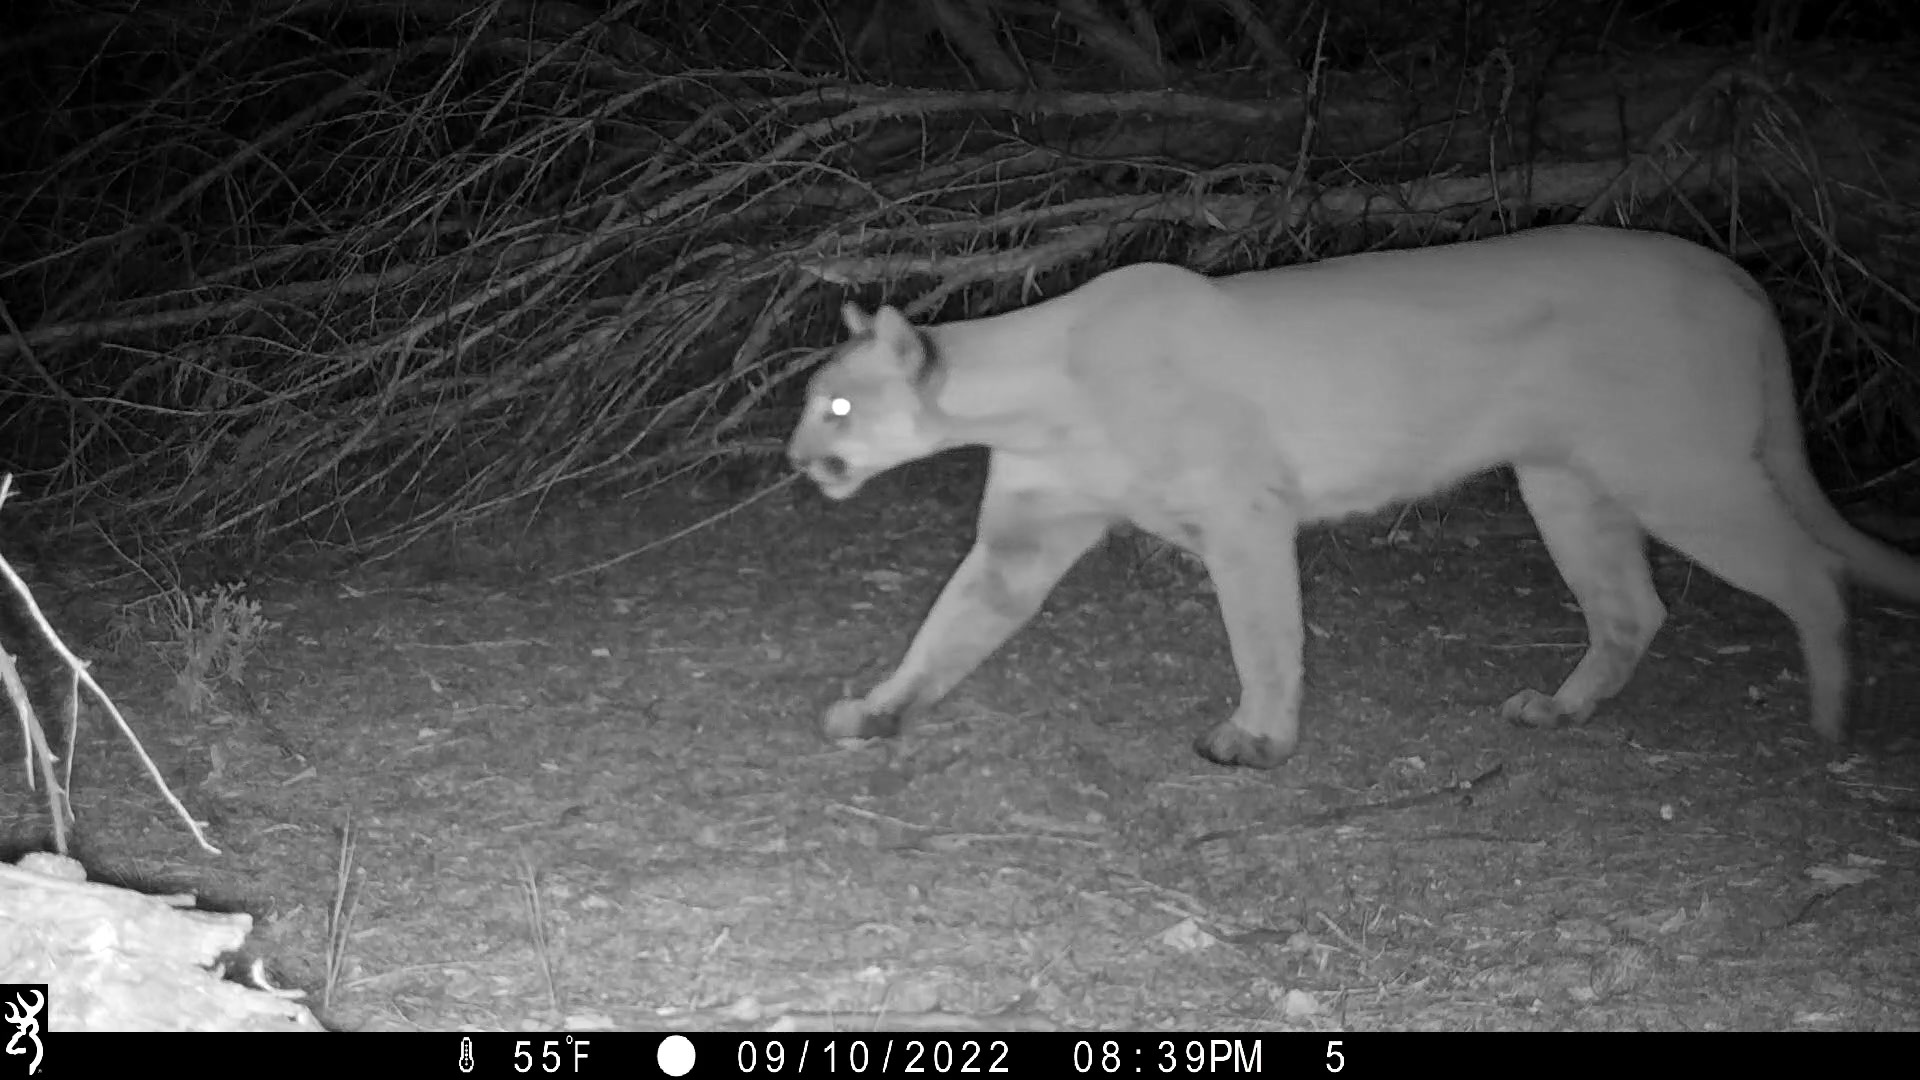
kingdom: Animalia
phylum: Chordata
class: Mammalia
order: Carnivora
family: Felidae
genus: Puma
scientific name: Puma concolor
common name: Puma
